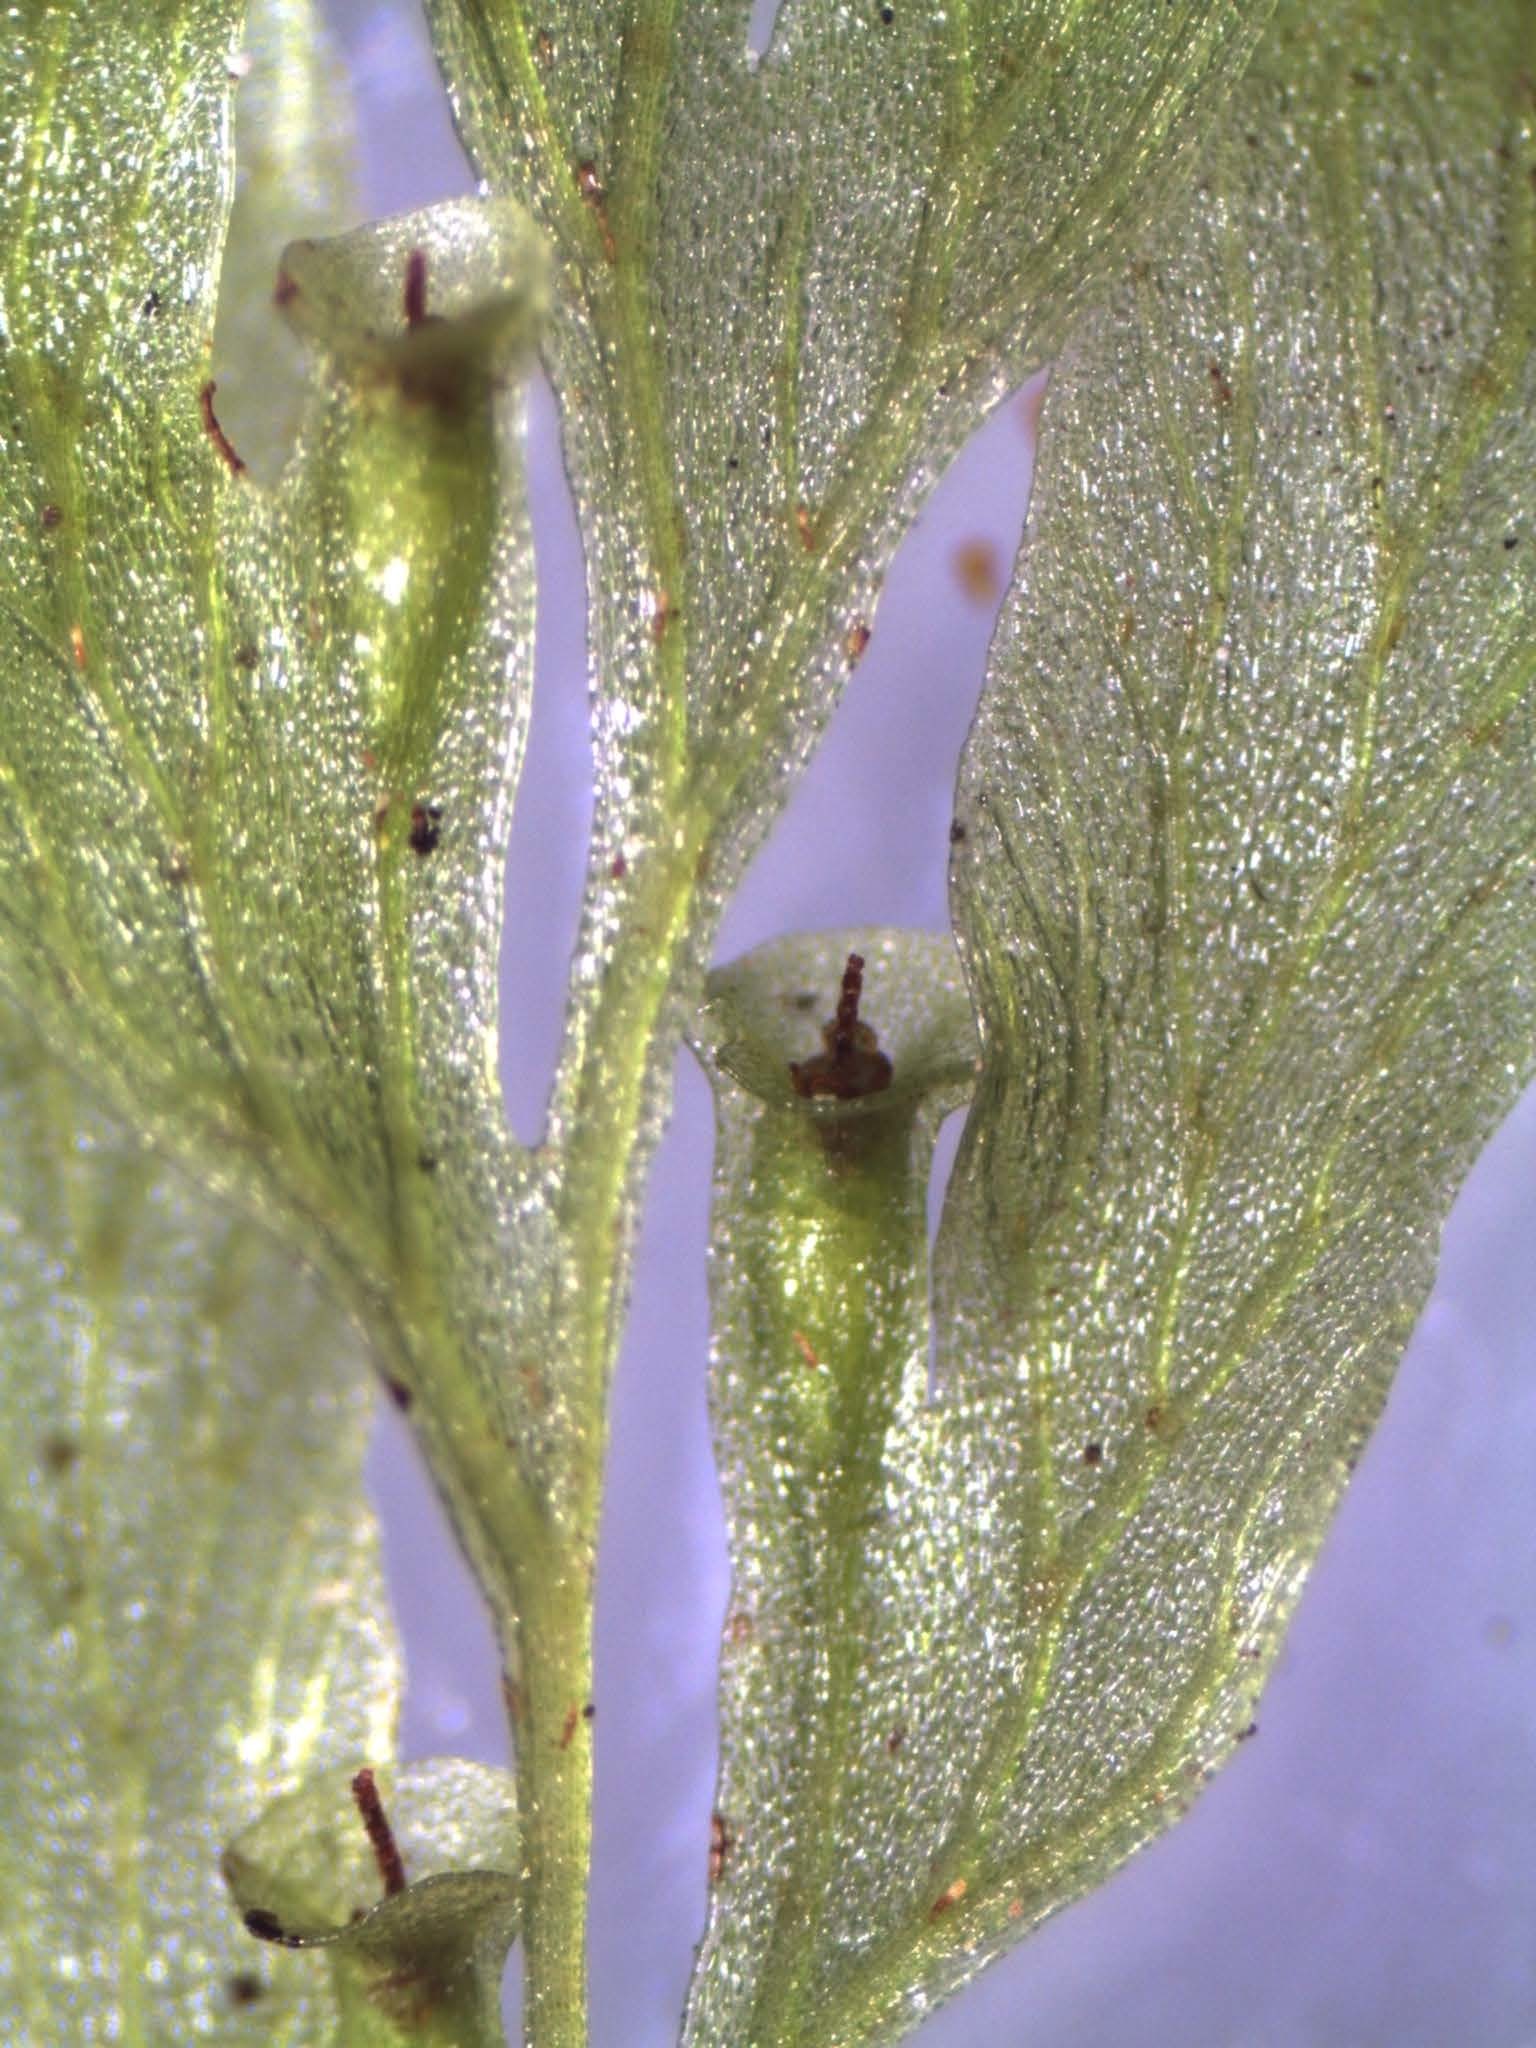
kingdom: Plantae
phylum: Tracheophyta
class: Polypodiopsida
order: Hymenophyllales
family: Hymenophyllaceae
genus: Polyphlebium
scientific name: Polyphlebium venosum
